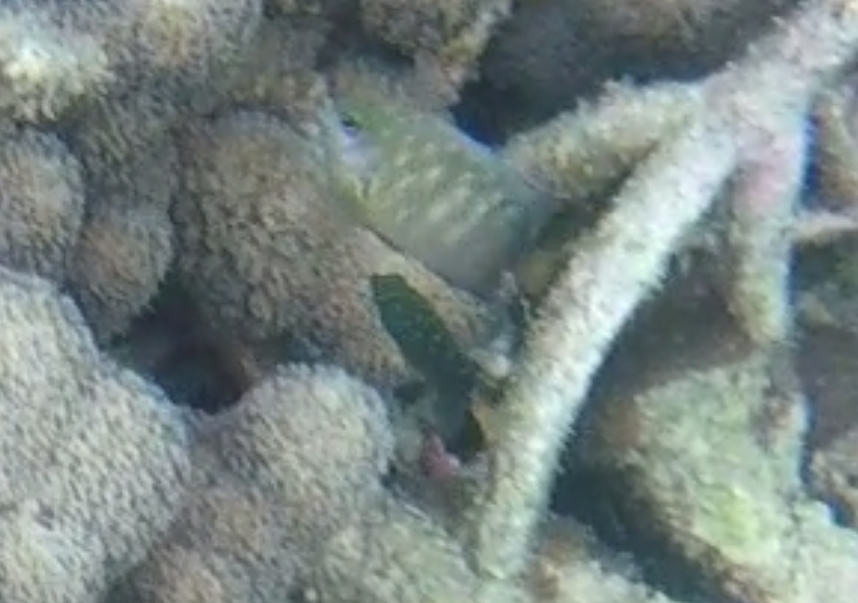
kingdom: Animalia
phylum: Chordata
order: Perciformes
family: Pomacentridae
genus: Plectroglyphidodon
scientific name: Plectroglyphidodon lacrymatus
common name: Jewel damsel
